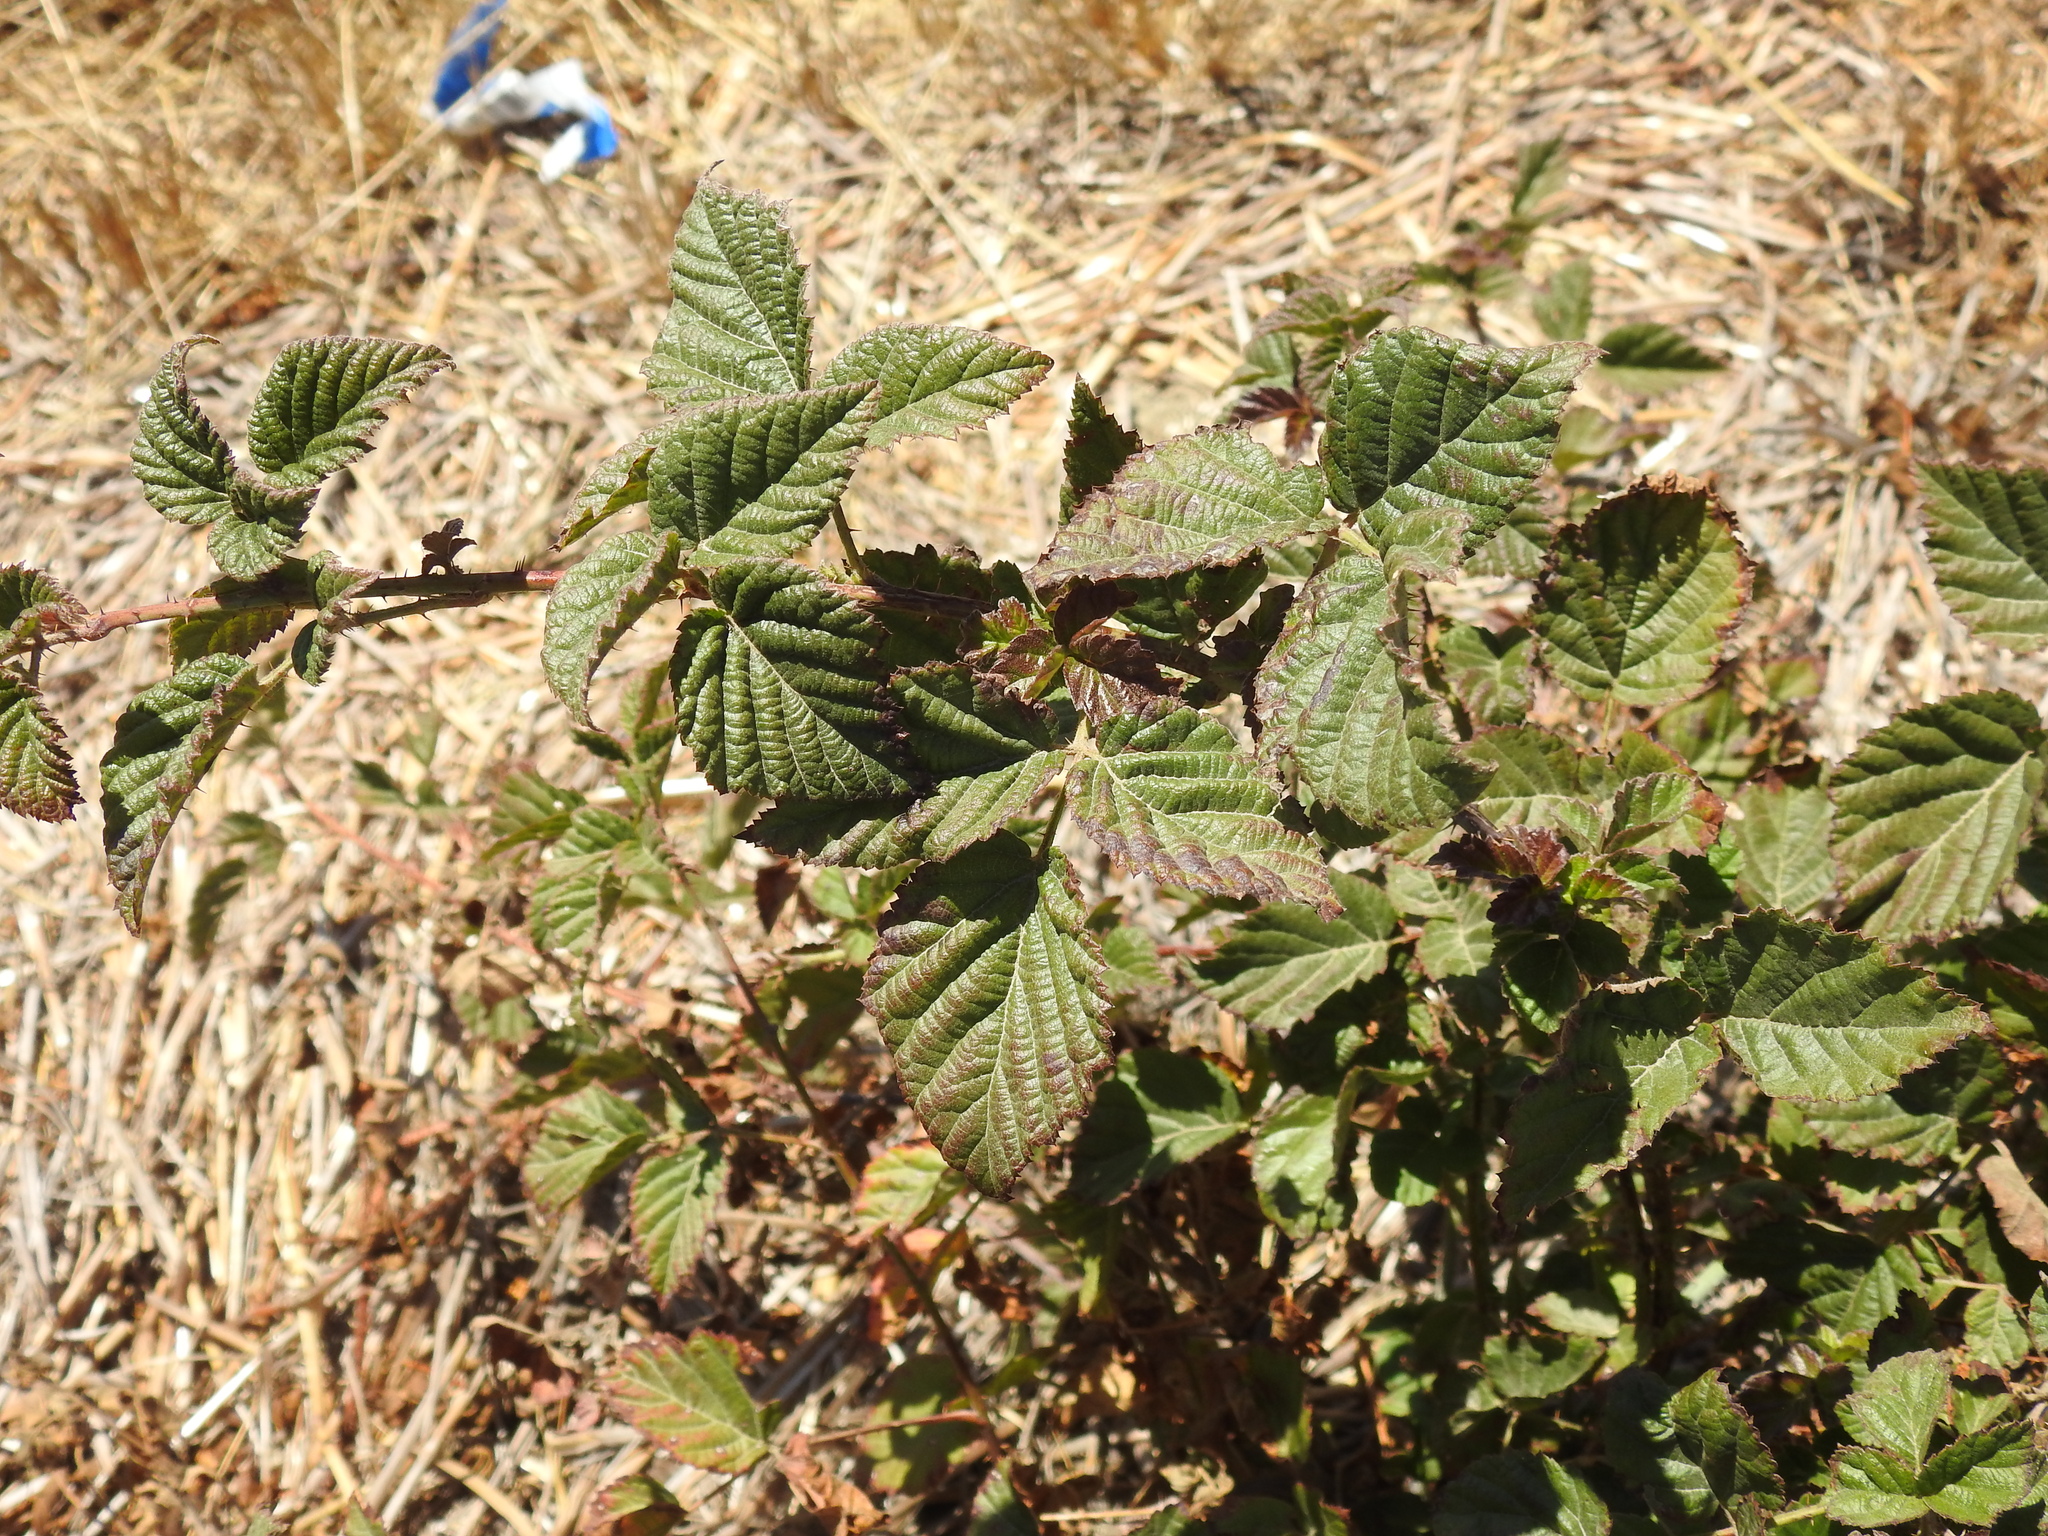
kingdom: Plantae
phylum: Tracheophyta
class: Magnoliopsida
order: Rosales
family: Rosaceae
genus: Rubus
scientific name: Rubus ursinus
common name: Pacific blackberry
